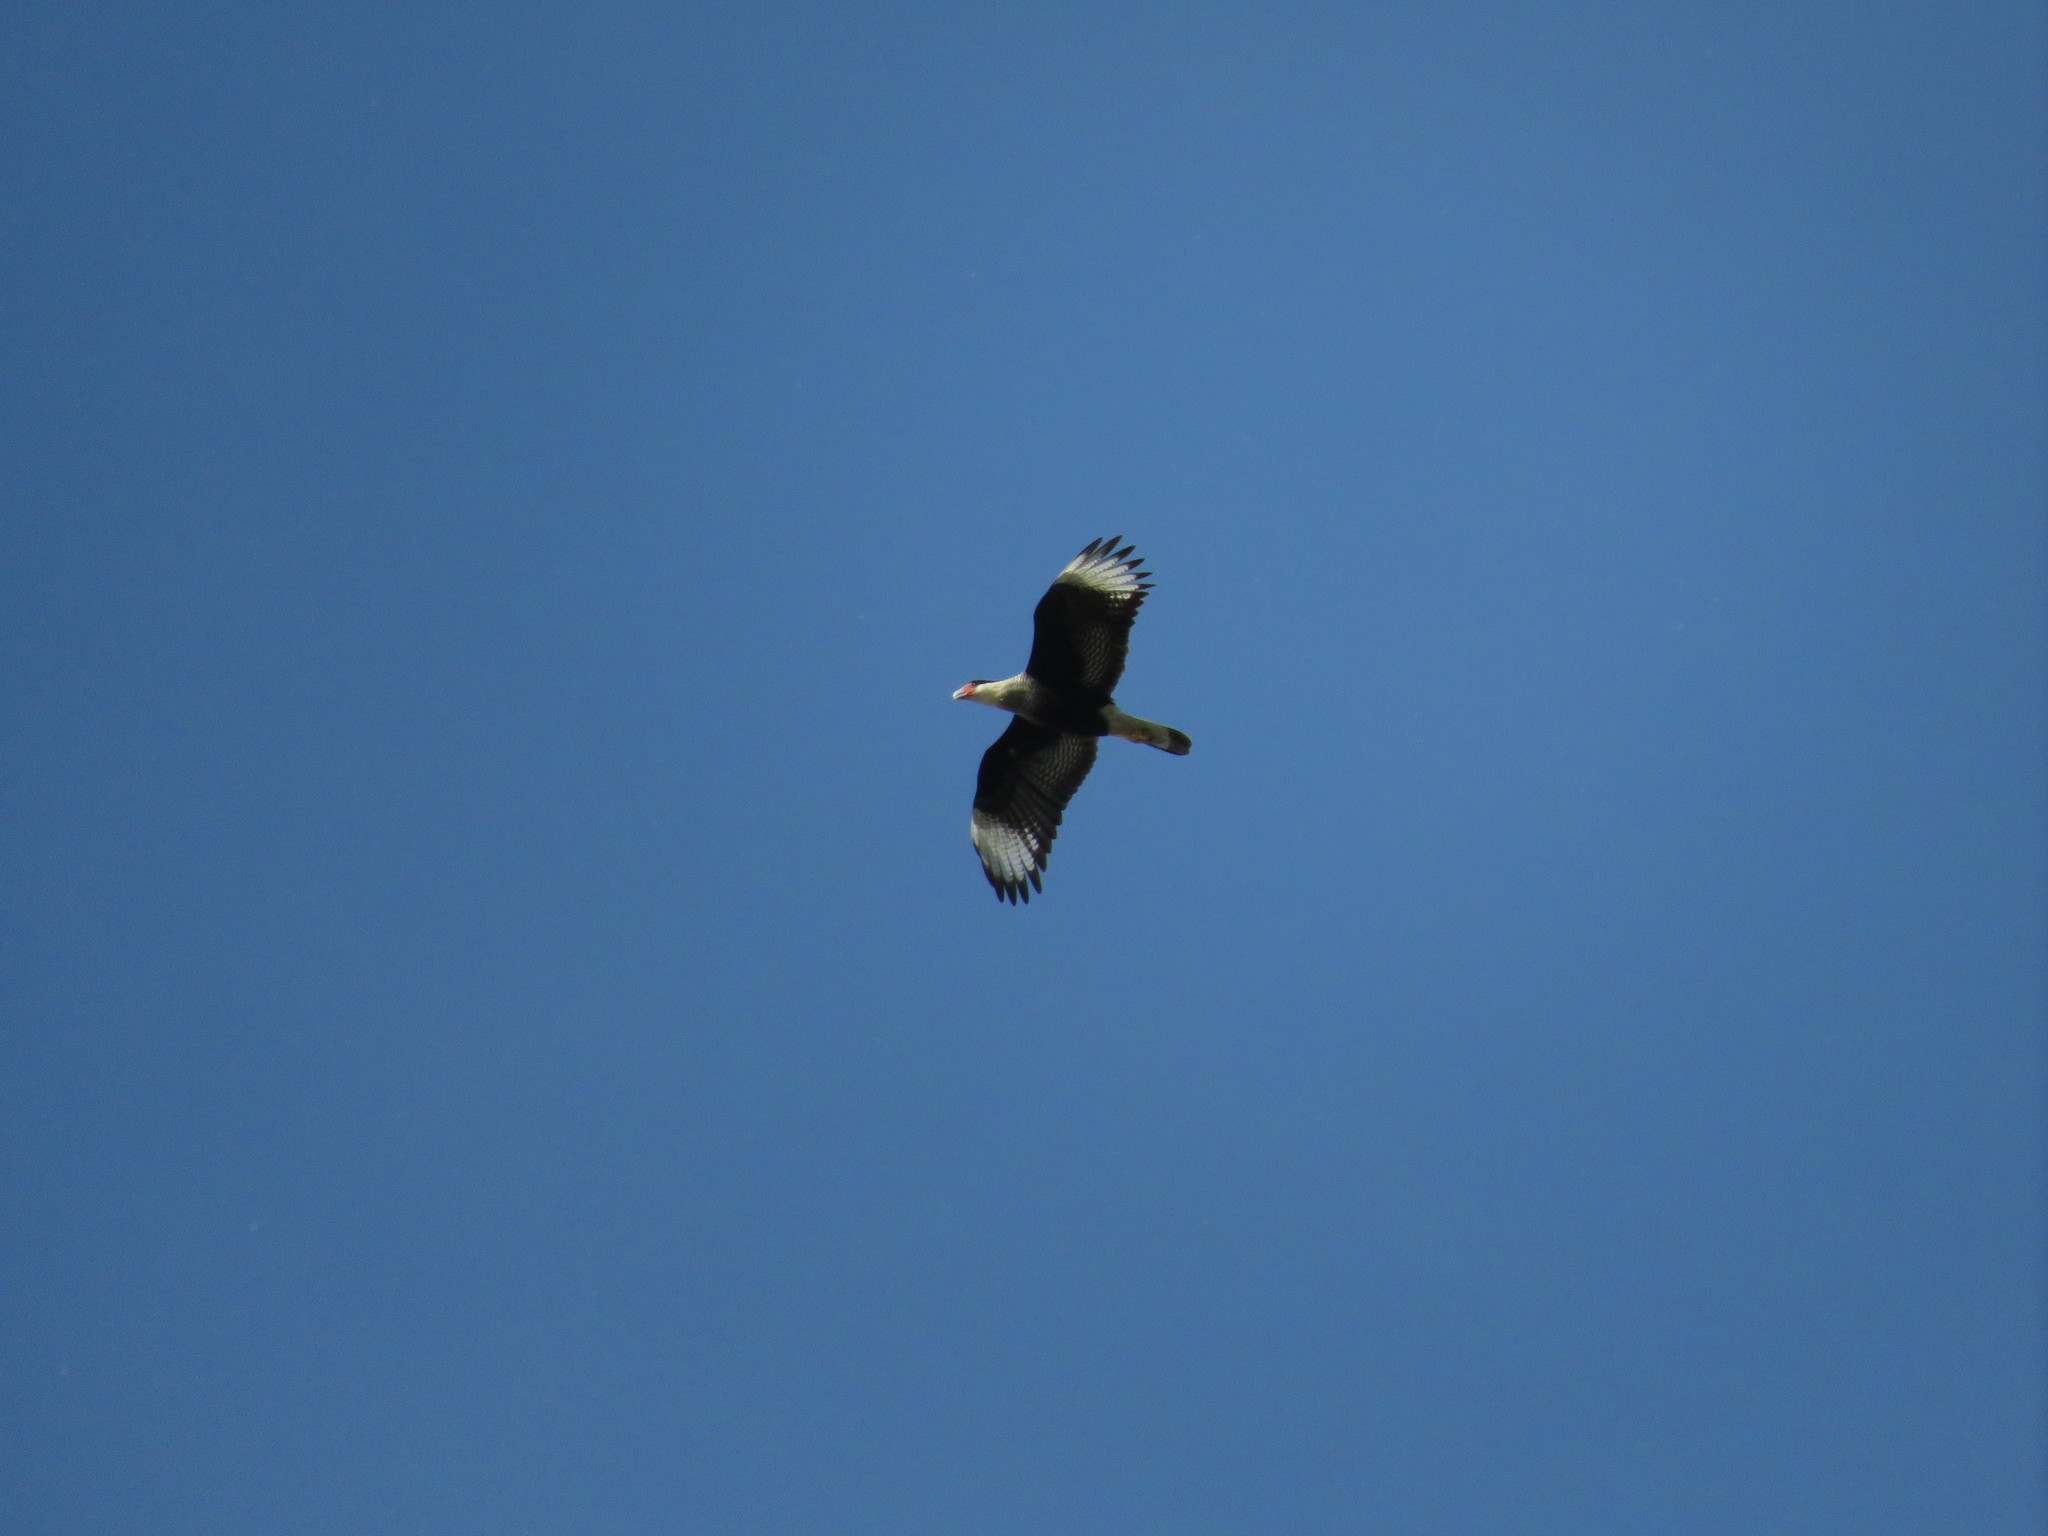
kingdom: Animalia
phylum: Chordata
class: Aves
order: Falconiformes
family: Falconidae
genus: Caracara
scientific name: Caracara plancus
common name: Southern caracara
